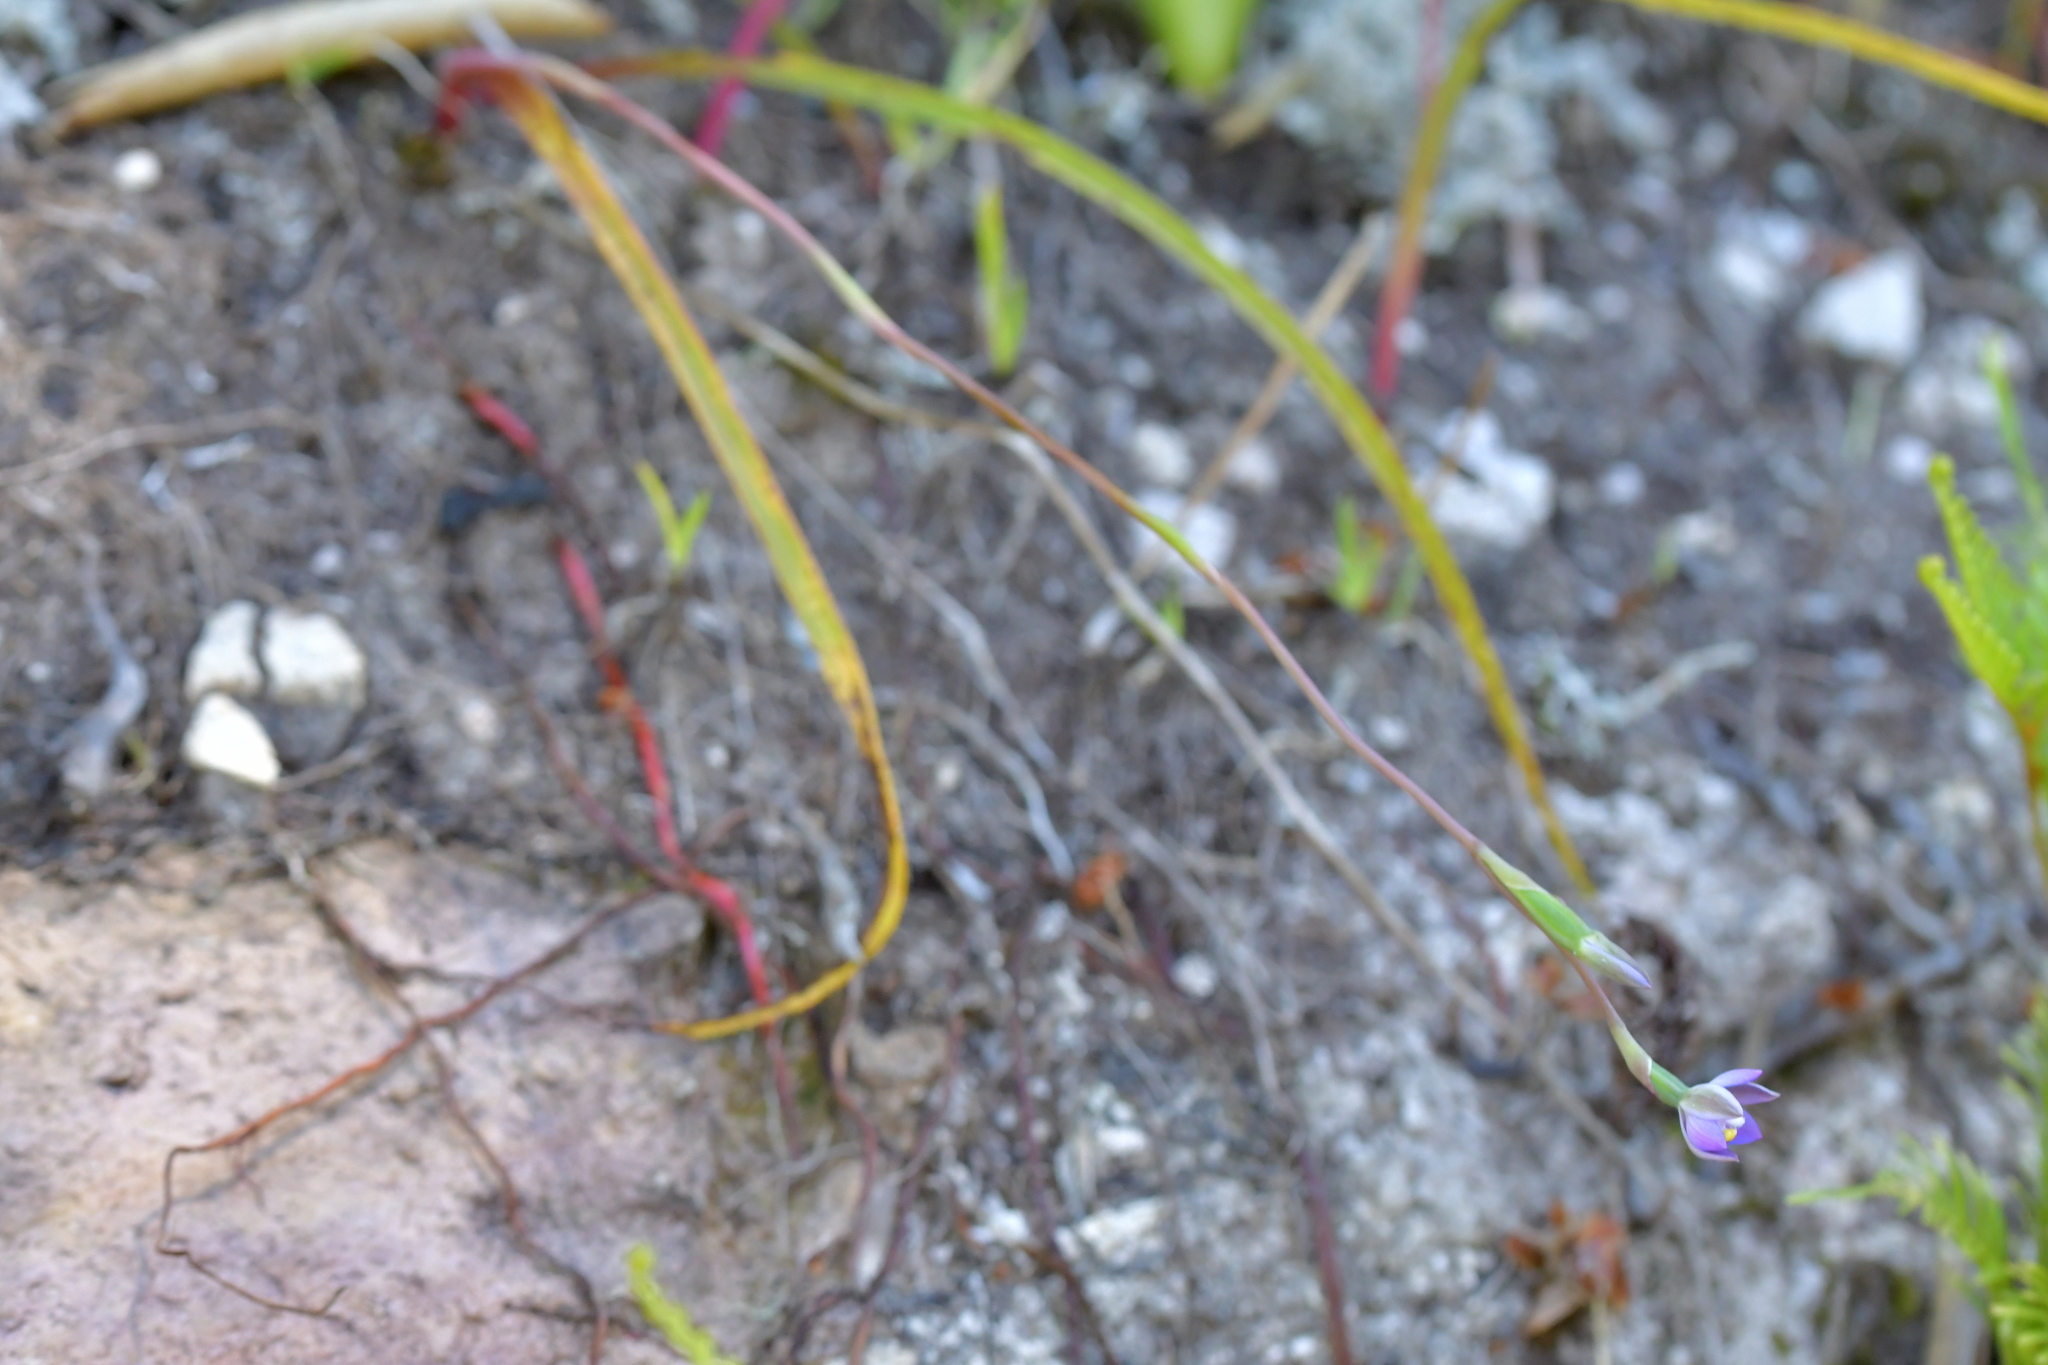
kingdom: Plantae
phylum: Tracheophyta
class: Liliopsida
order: Asparagales
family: Orchidaceae
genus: Thelymitra
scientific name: Thelymitra pauciflora
